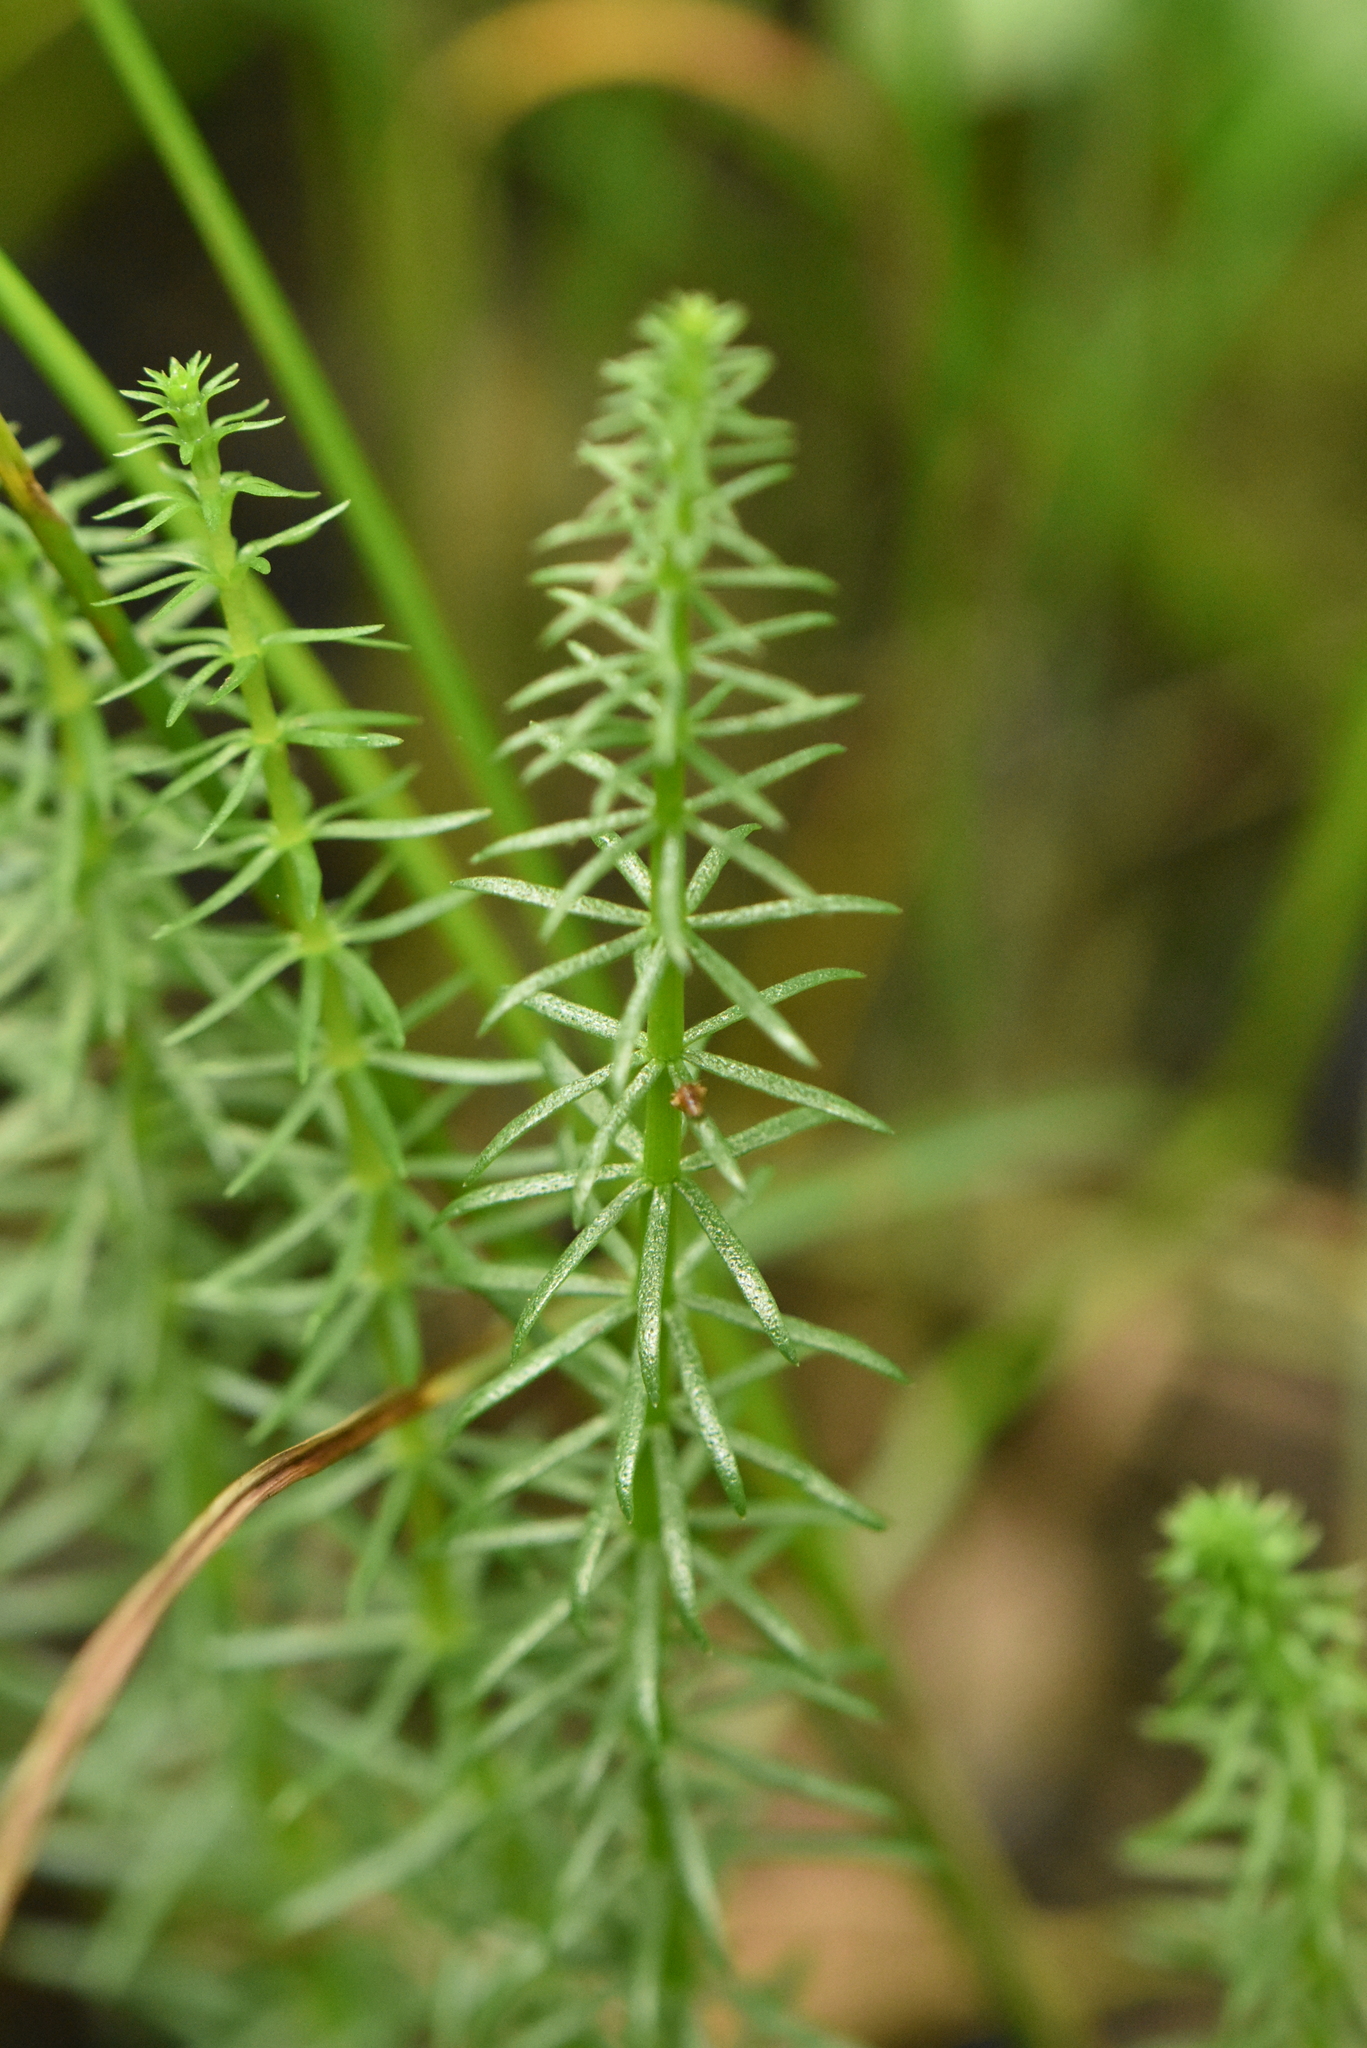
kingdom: Plantae
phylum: Tracheophyta
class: Magnoliopsida
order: Lamiales
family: Plantaginaceae
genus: Hippuris
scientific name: Hippuris vulgaris
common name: Mare's-tail
